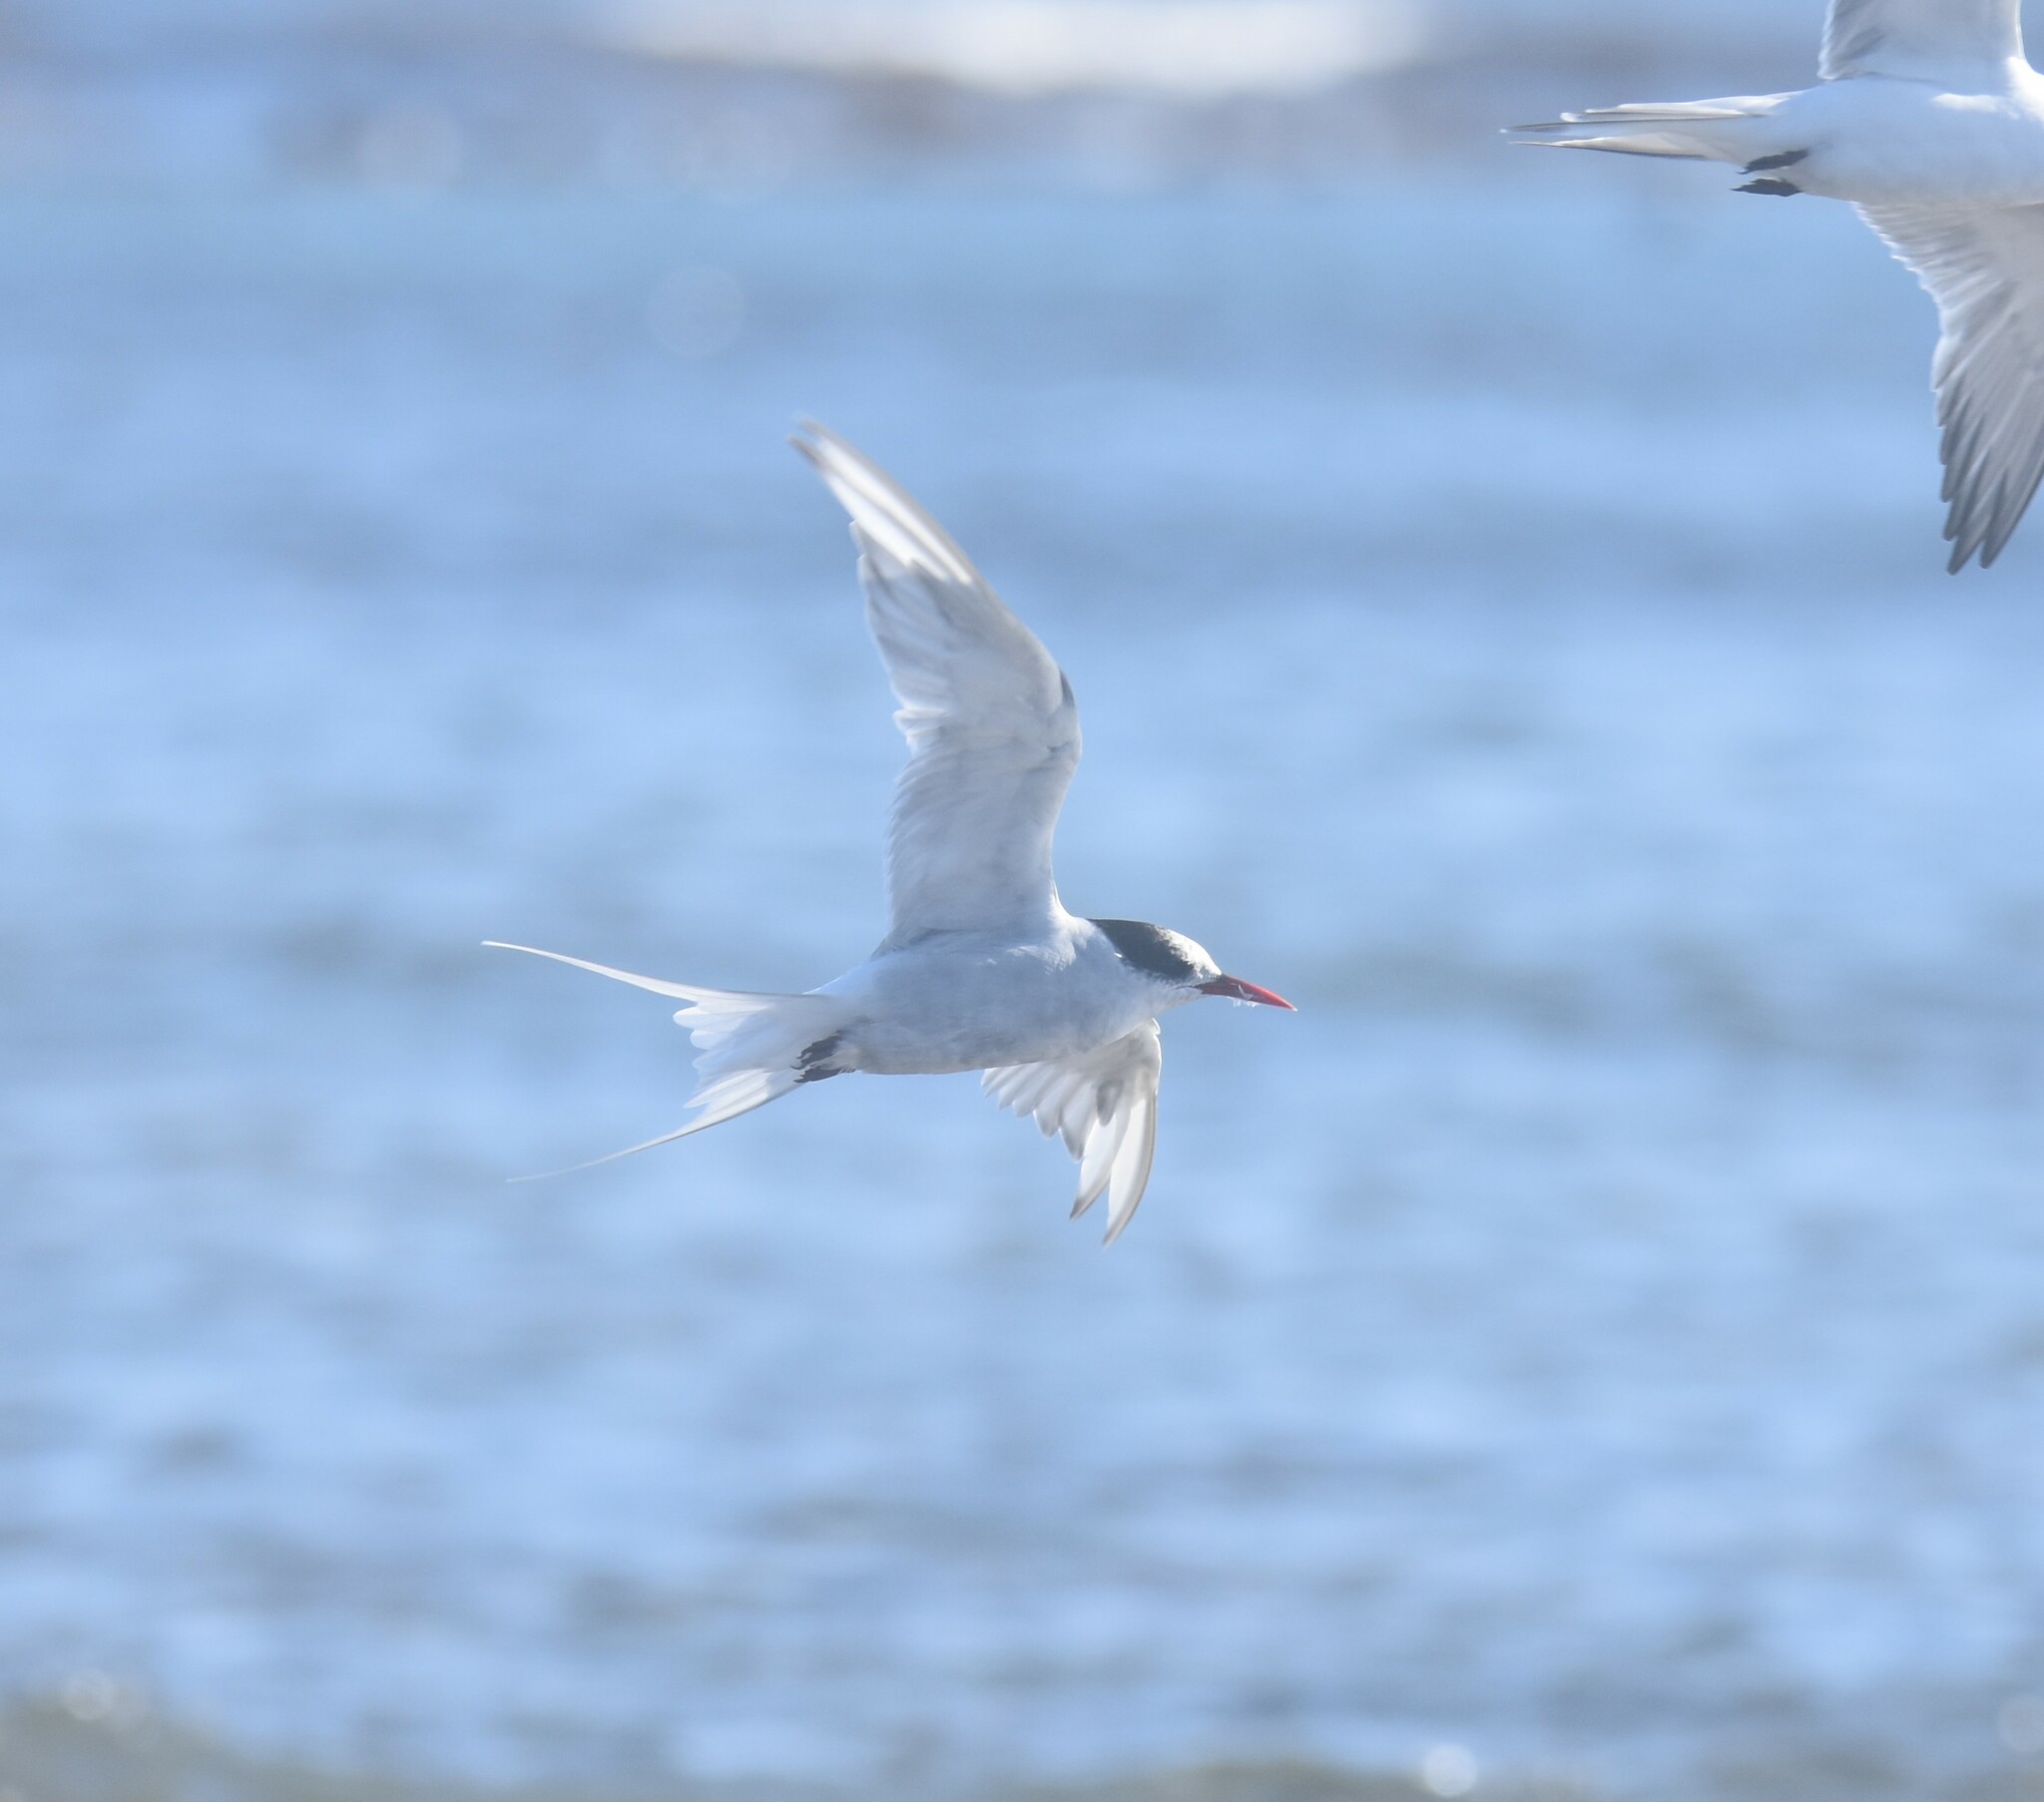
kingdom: Animalia
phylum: Chordata
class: Aves
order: Charadriiformes
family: Laridae
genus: Sterna
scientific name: Sterna vittata
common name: Antarctic tern
